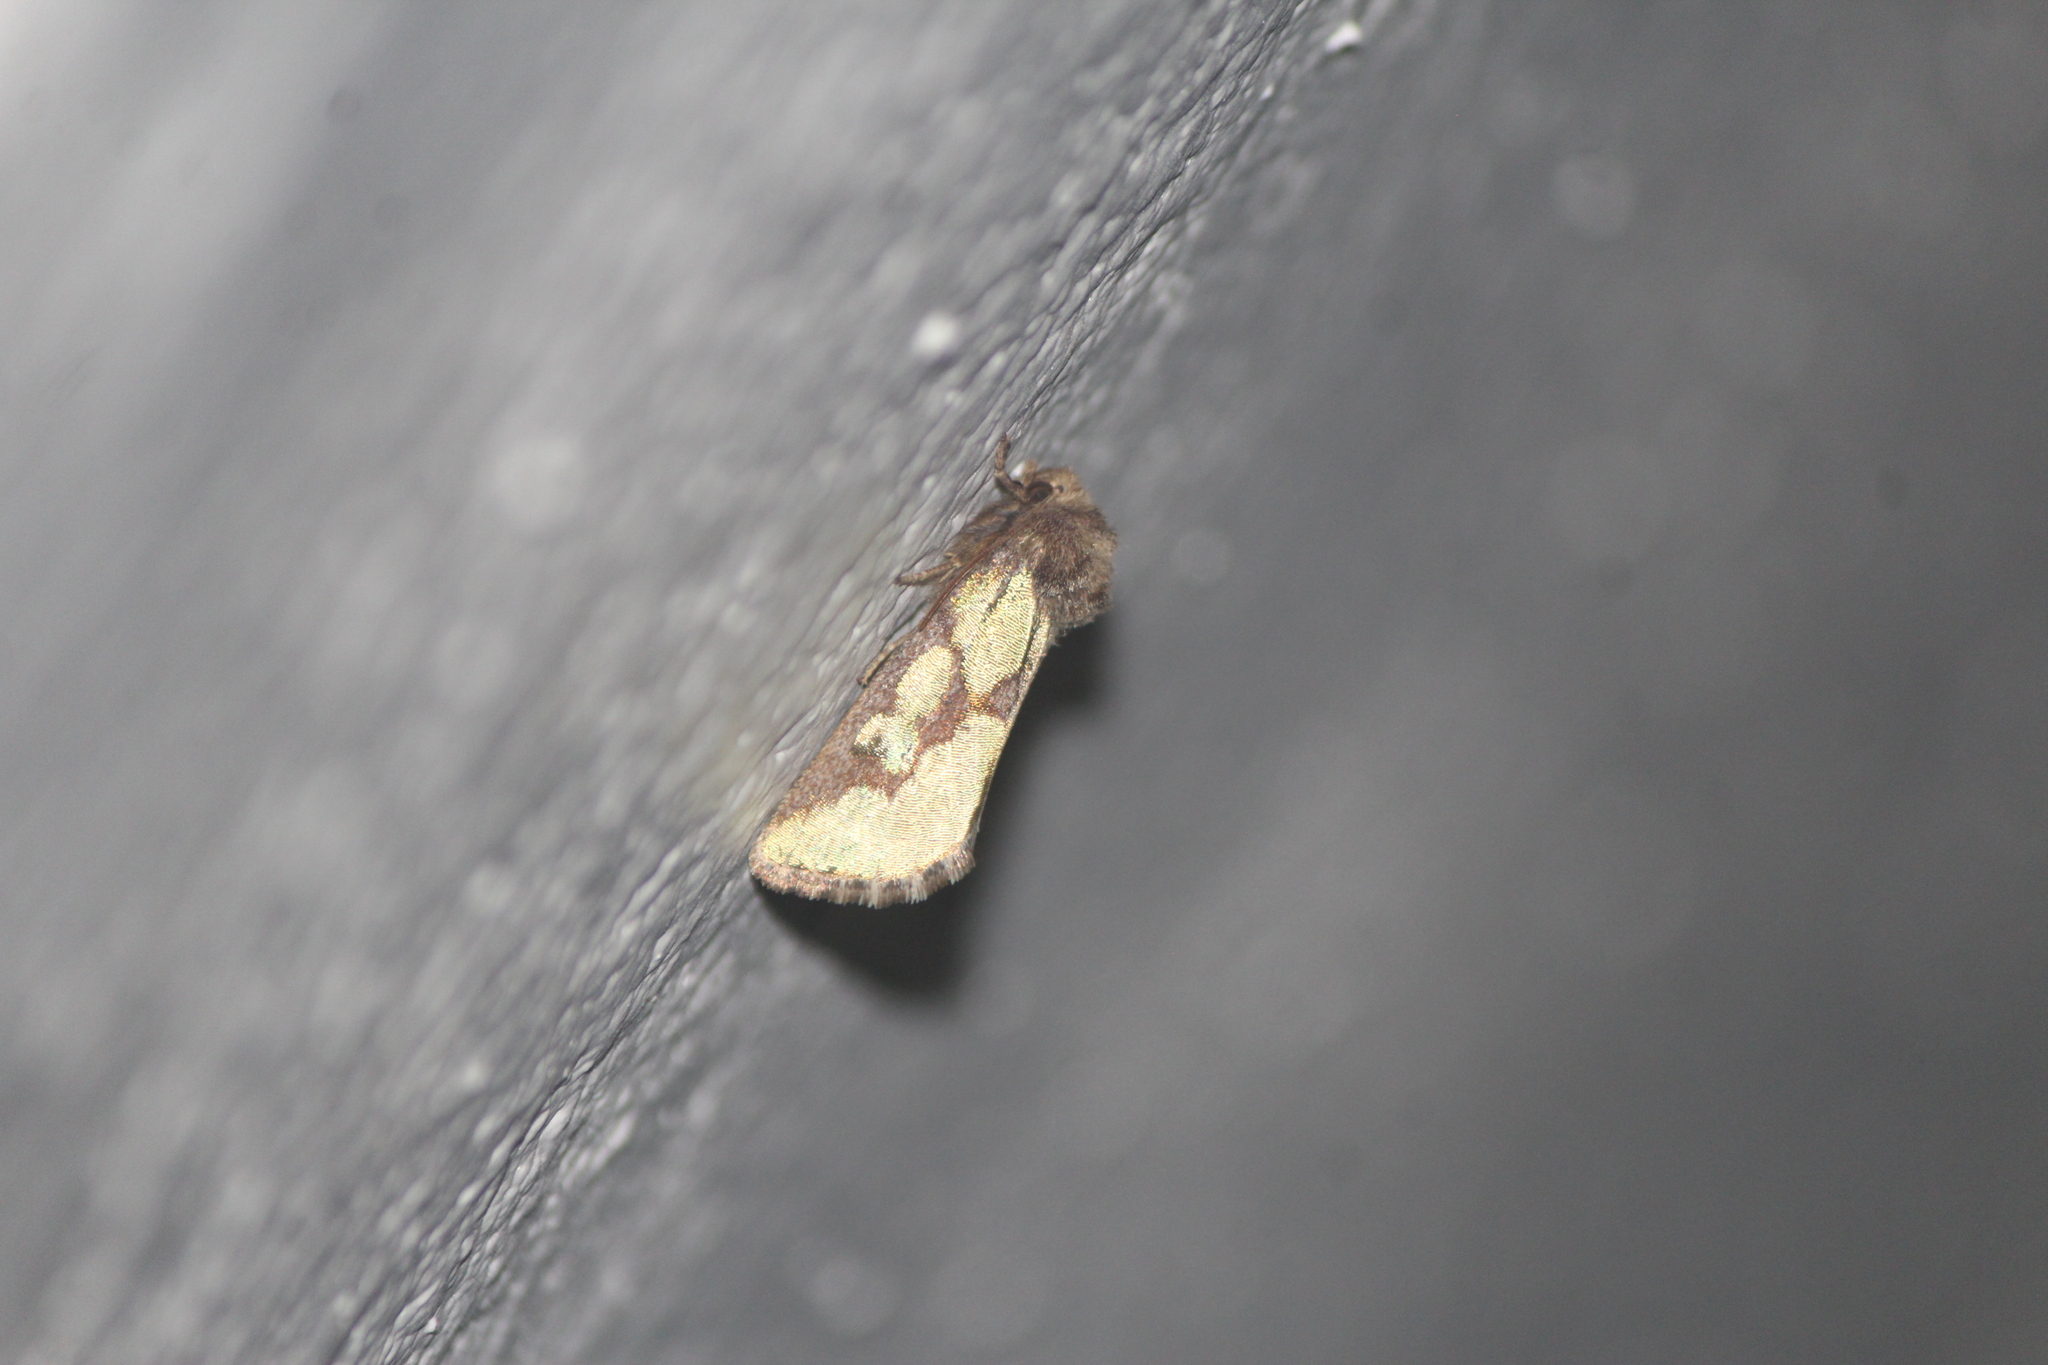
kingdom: Animalia
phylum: Arthropoda
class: Insecta
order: Lepidoptera
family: Noctuidae
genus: Chalcopasta
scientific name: Chalcopasta ellica
